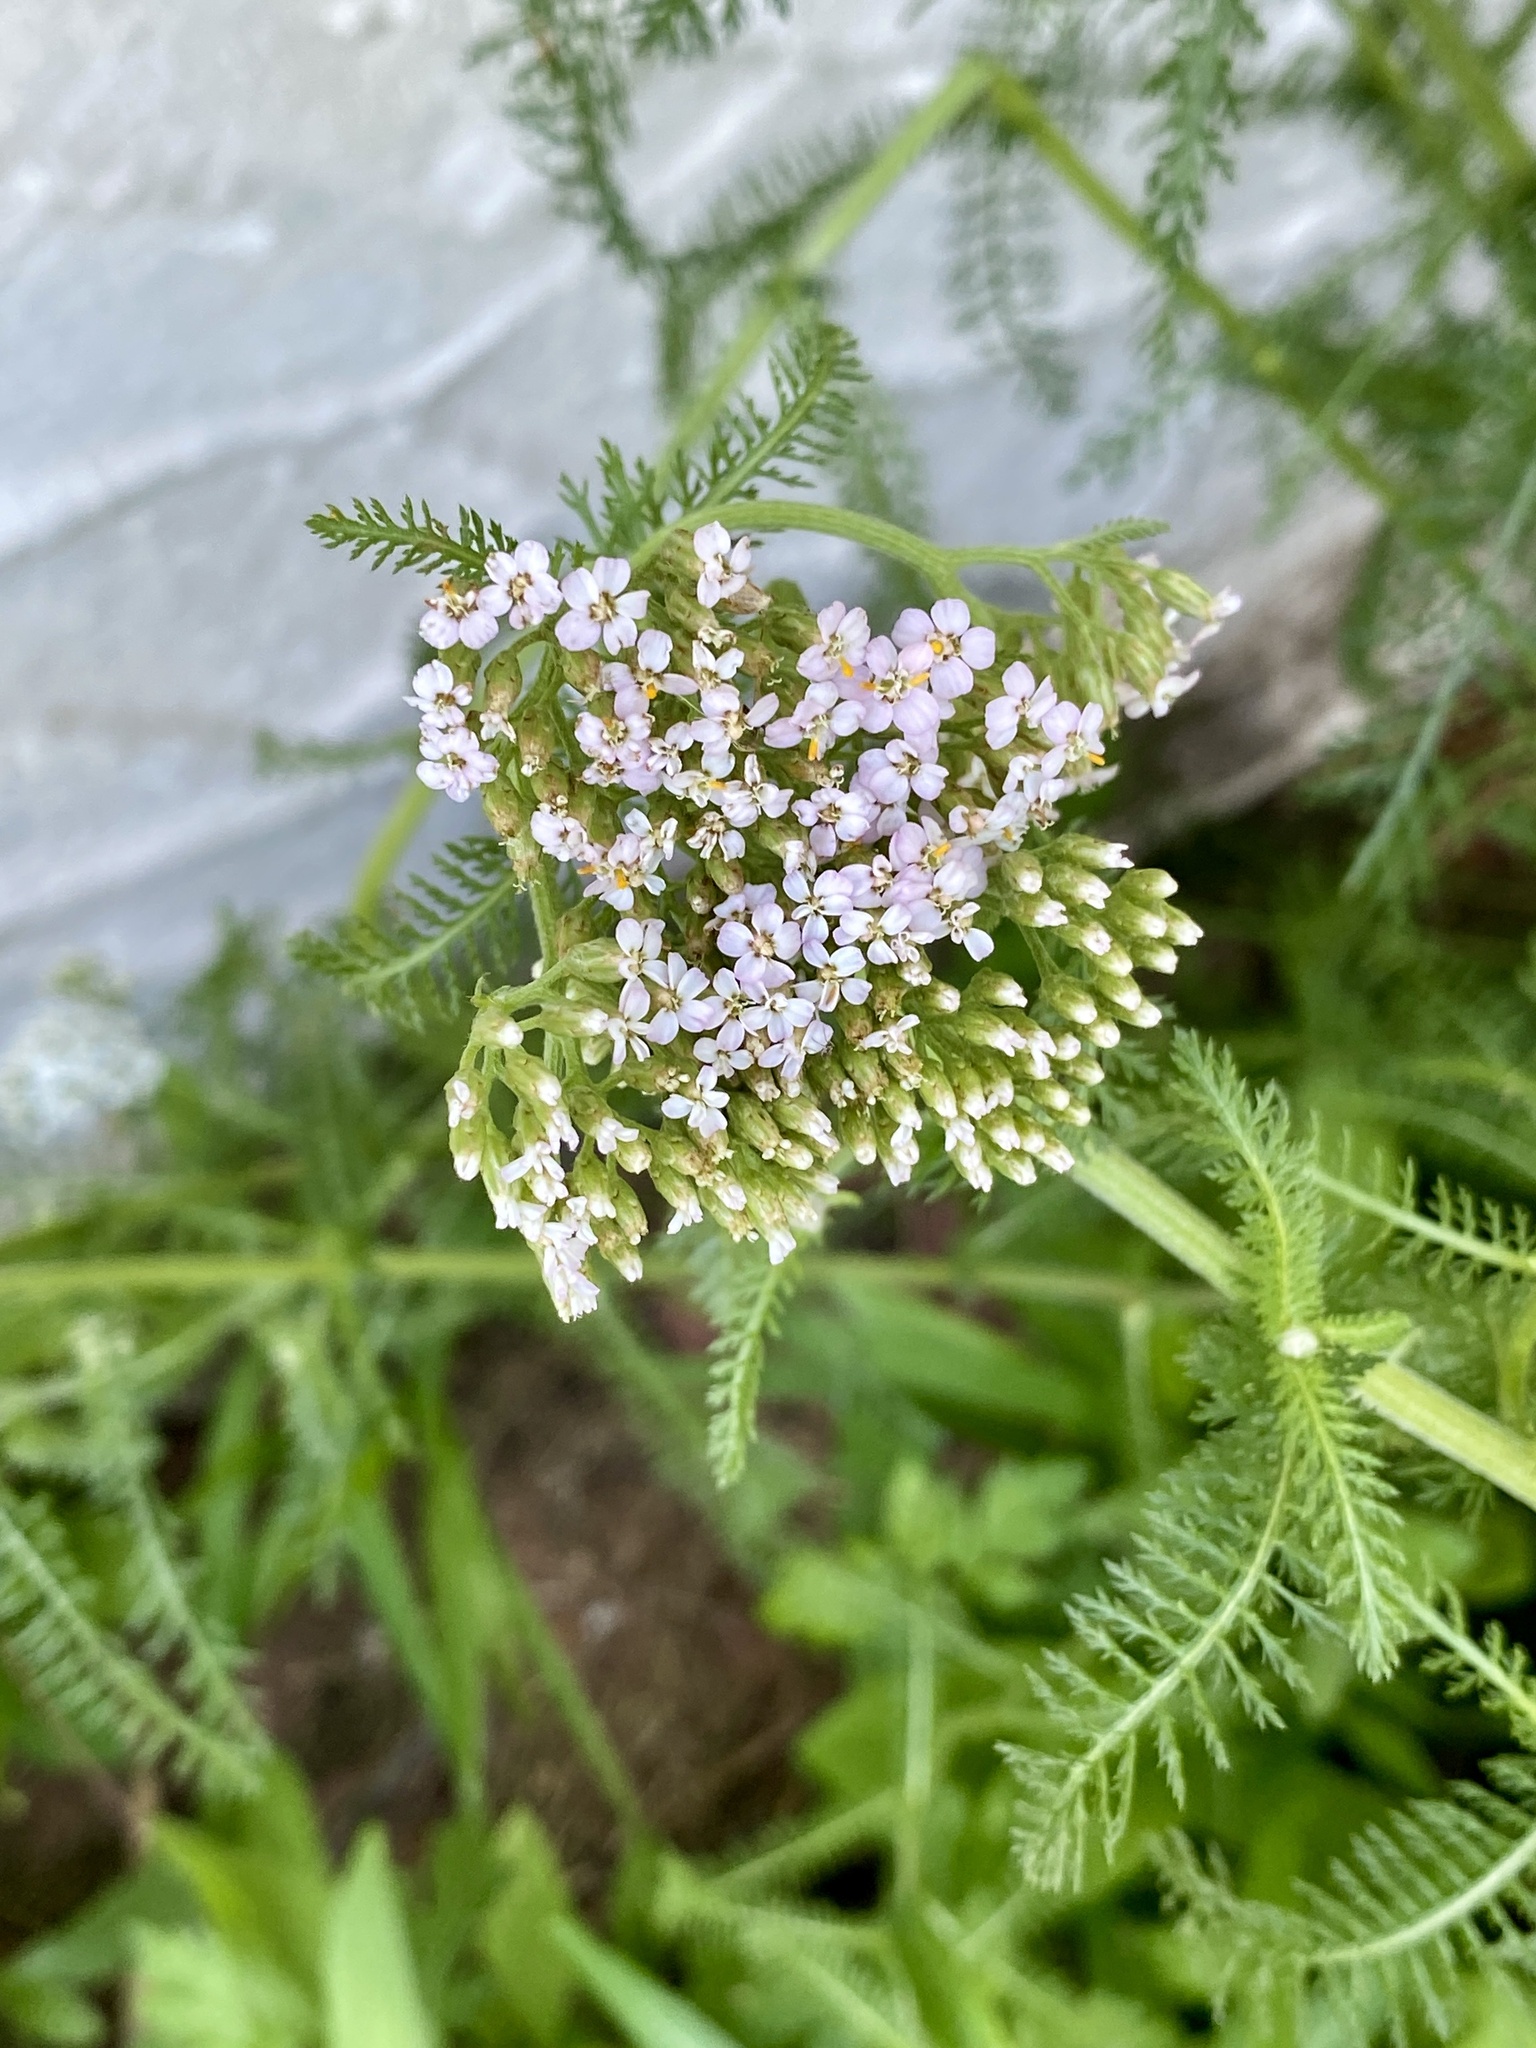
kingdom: Plantae
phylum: Tracheophyta
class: Magnoliopsida
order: Asterales
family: Asteraceae
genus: Achillea
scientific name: Achillea millefolium
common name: Yarrow
